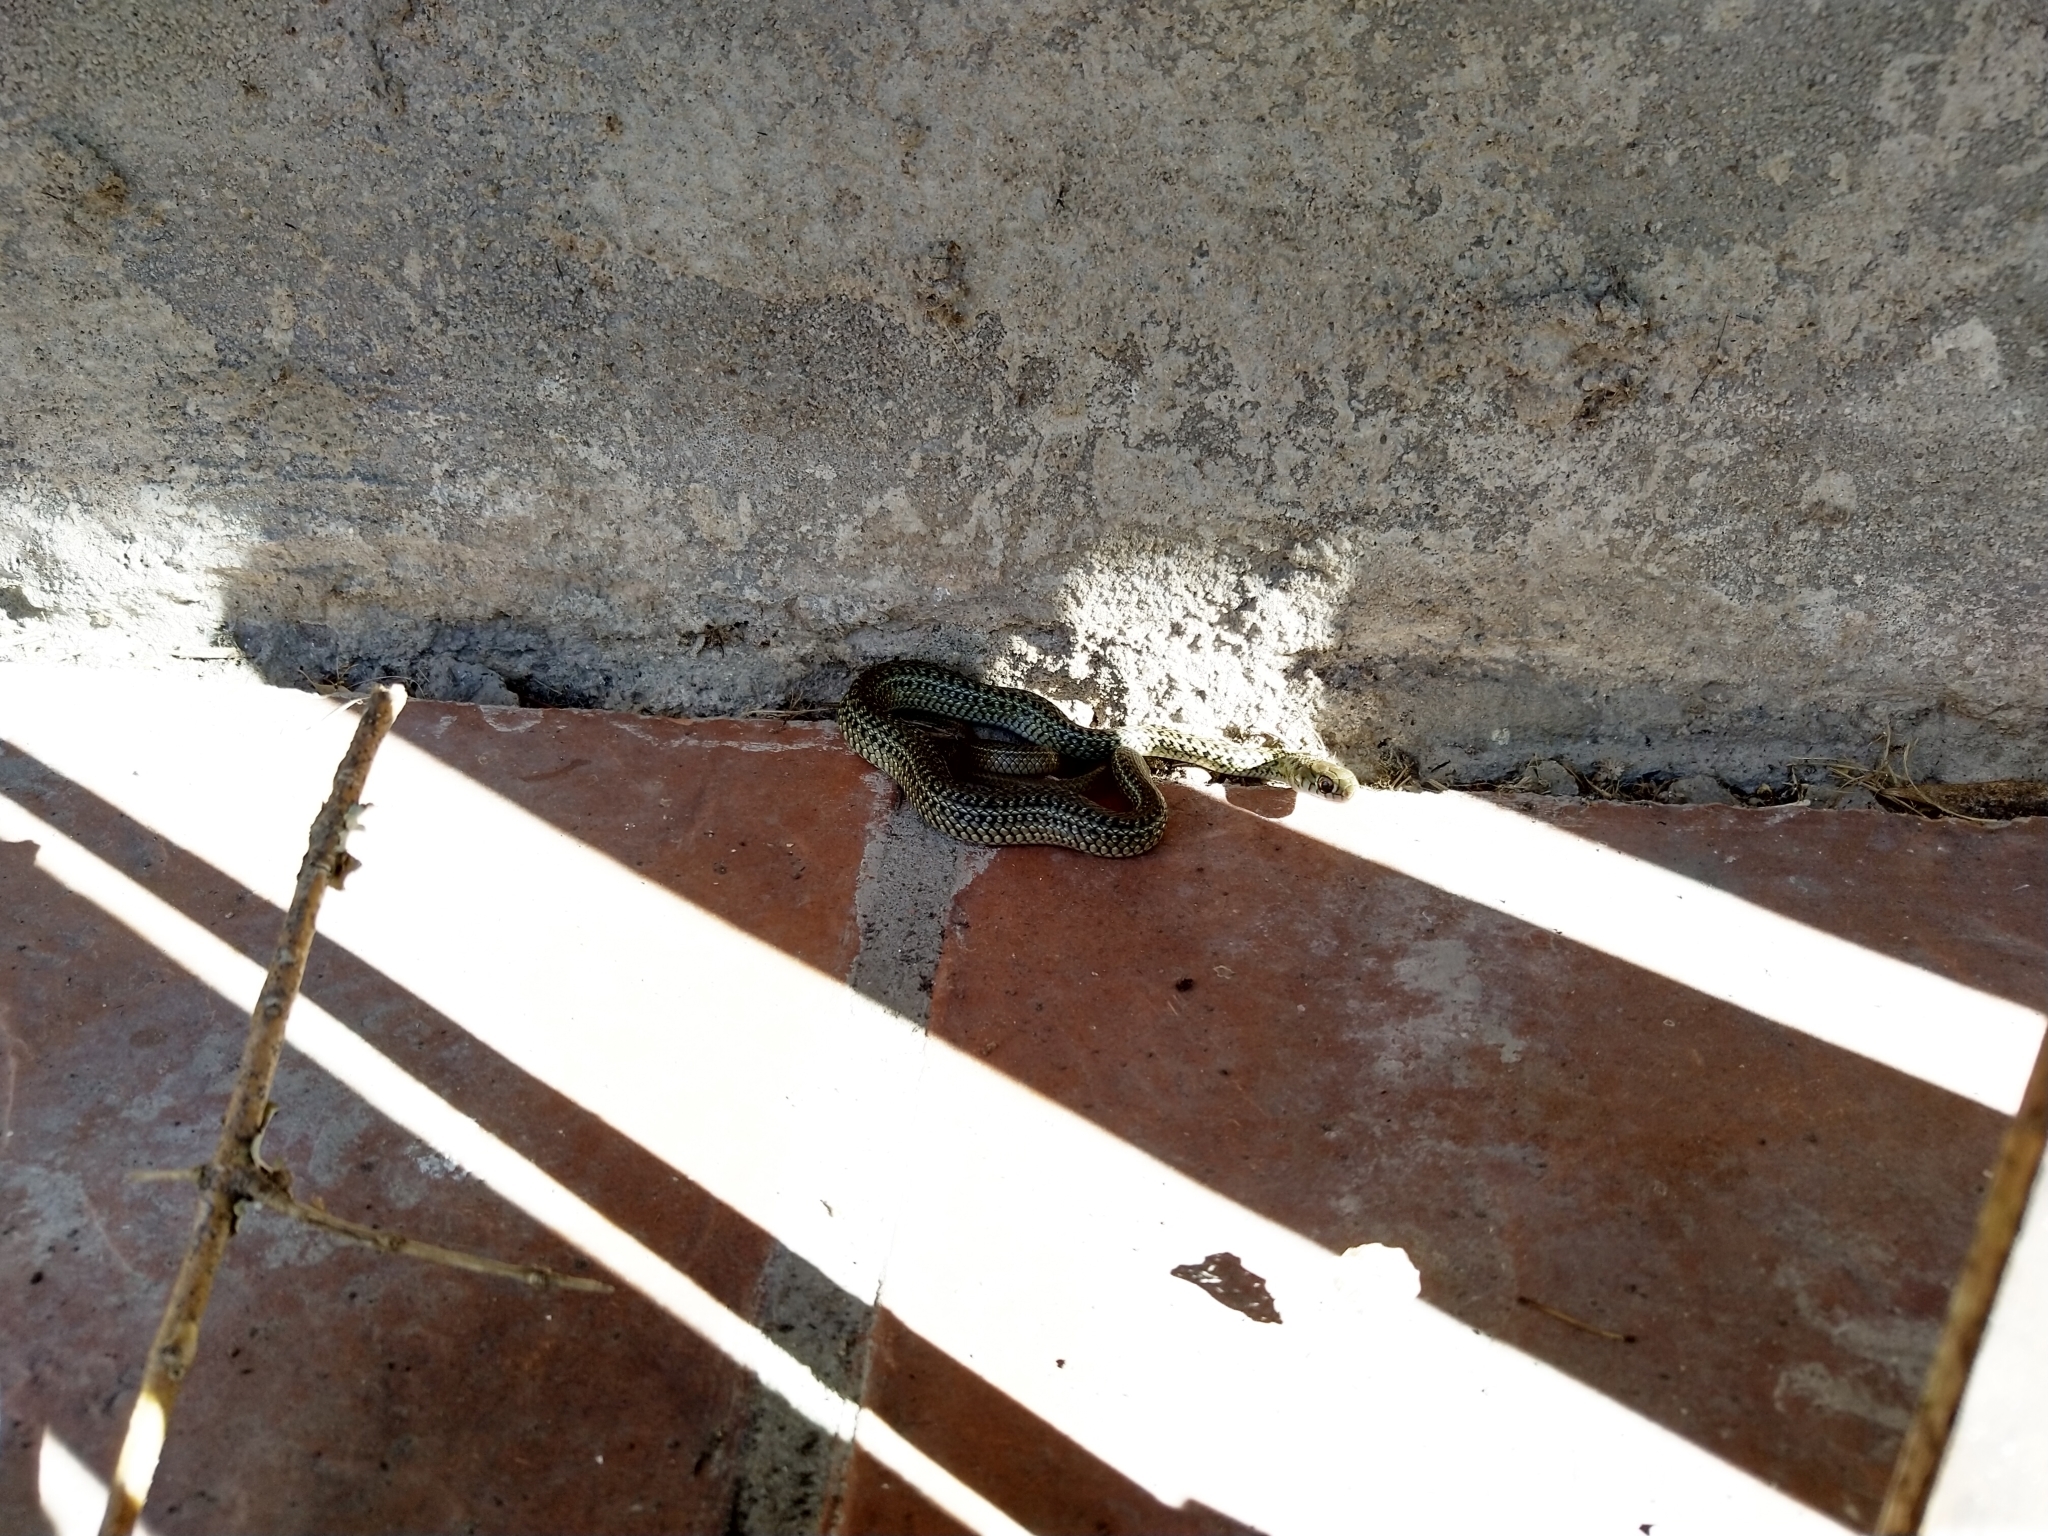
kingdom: Animalia
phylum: Chordata
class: Squamata
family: Colubridae
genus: Philodryas
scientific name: Philodryas patagoniensis
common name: Patagonia green racer
